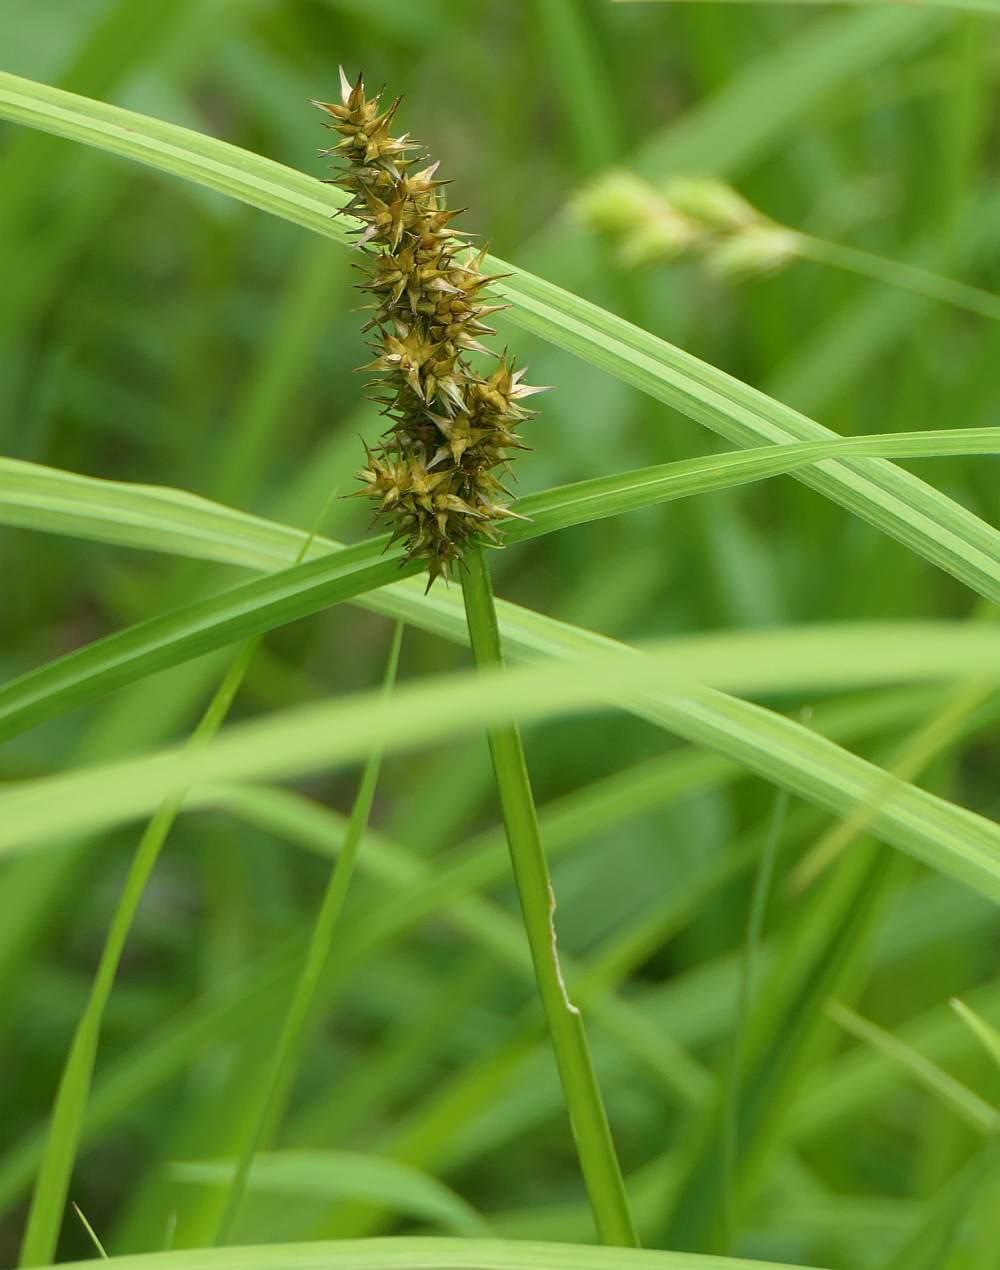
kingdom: Plantae
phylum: Tracheophyta
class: Liliopsida
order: Poales
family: Cyperaceae
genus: Carex
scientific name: Carex stipata
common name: Awl-fruited sedge
